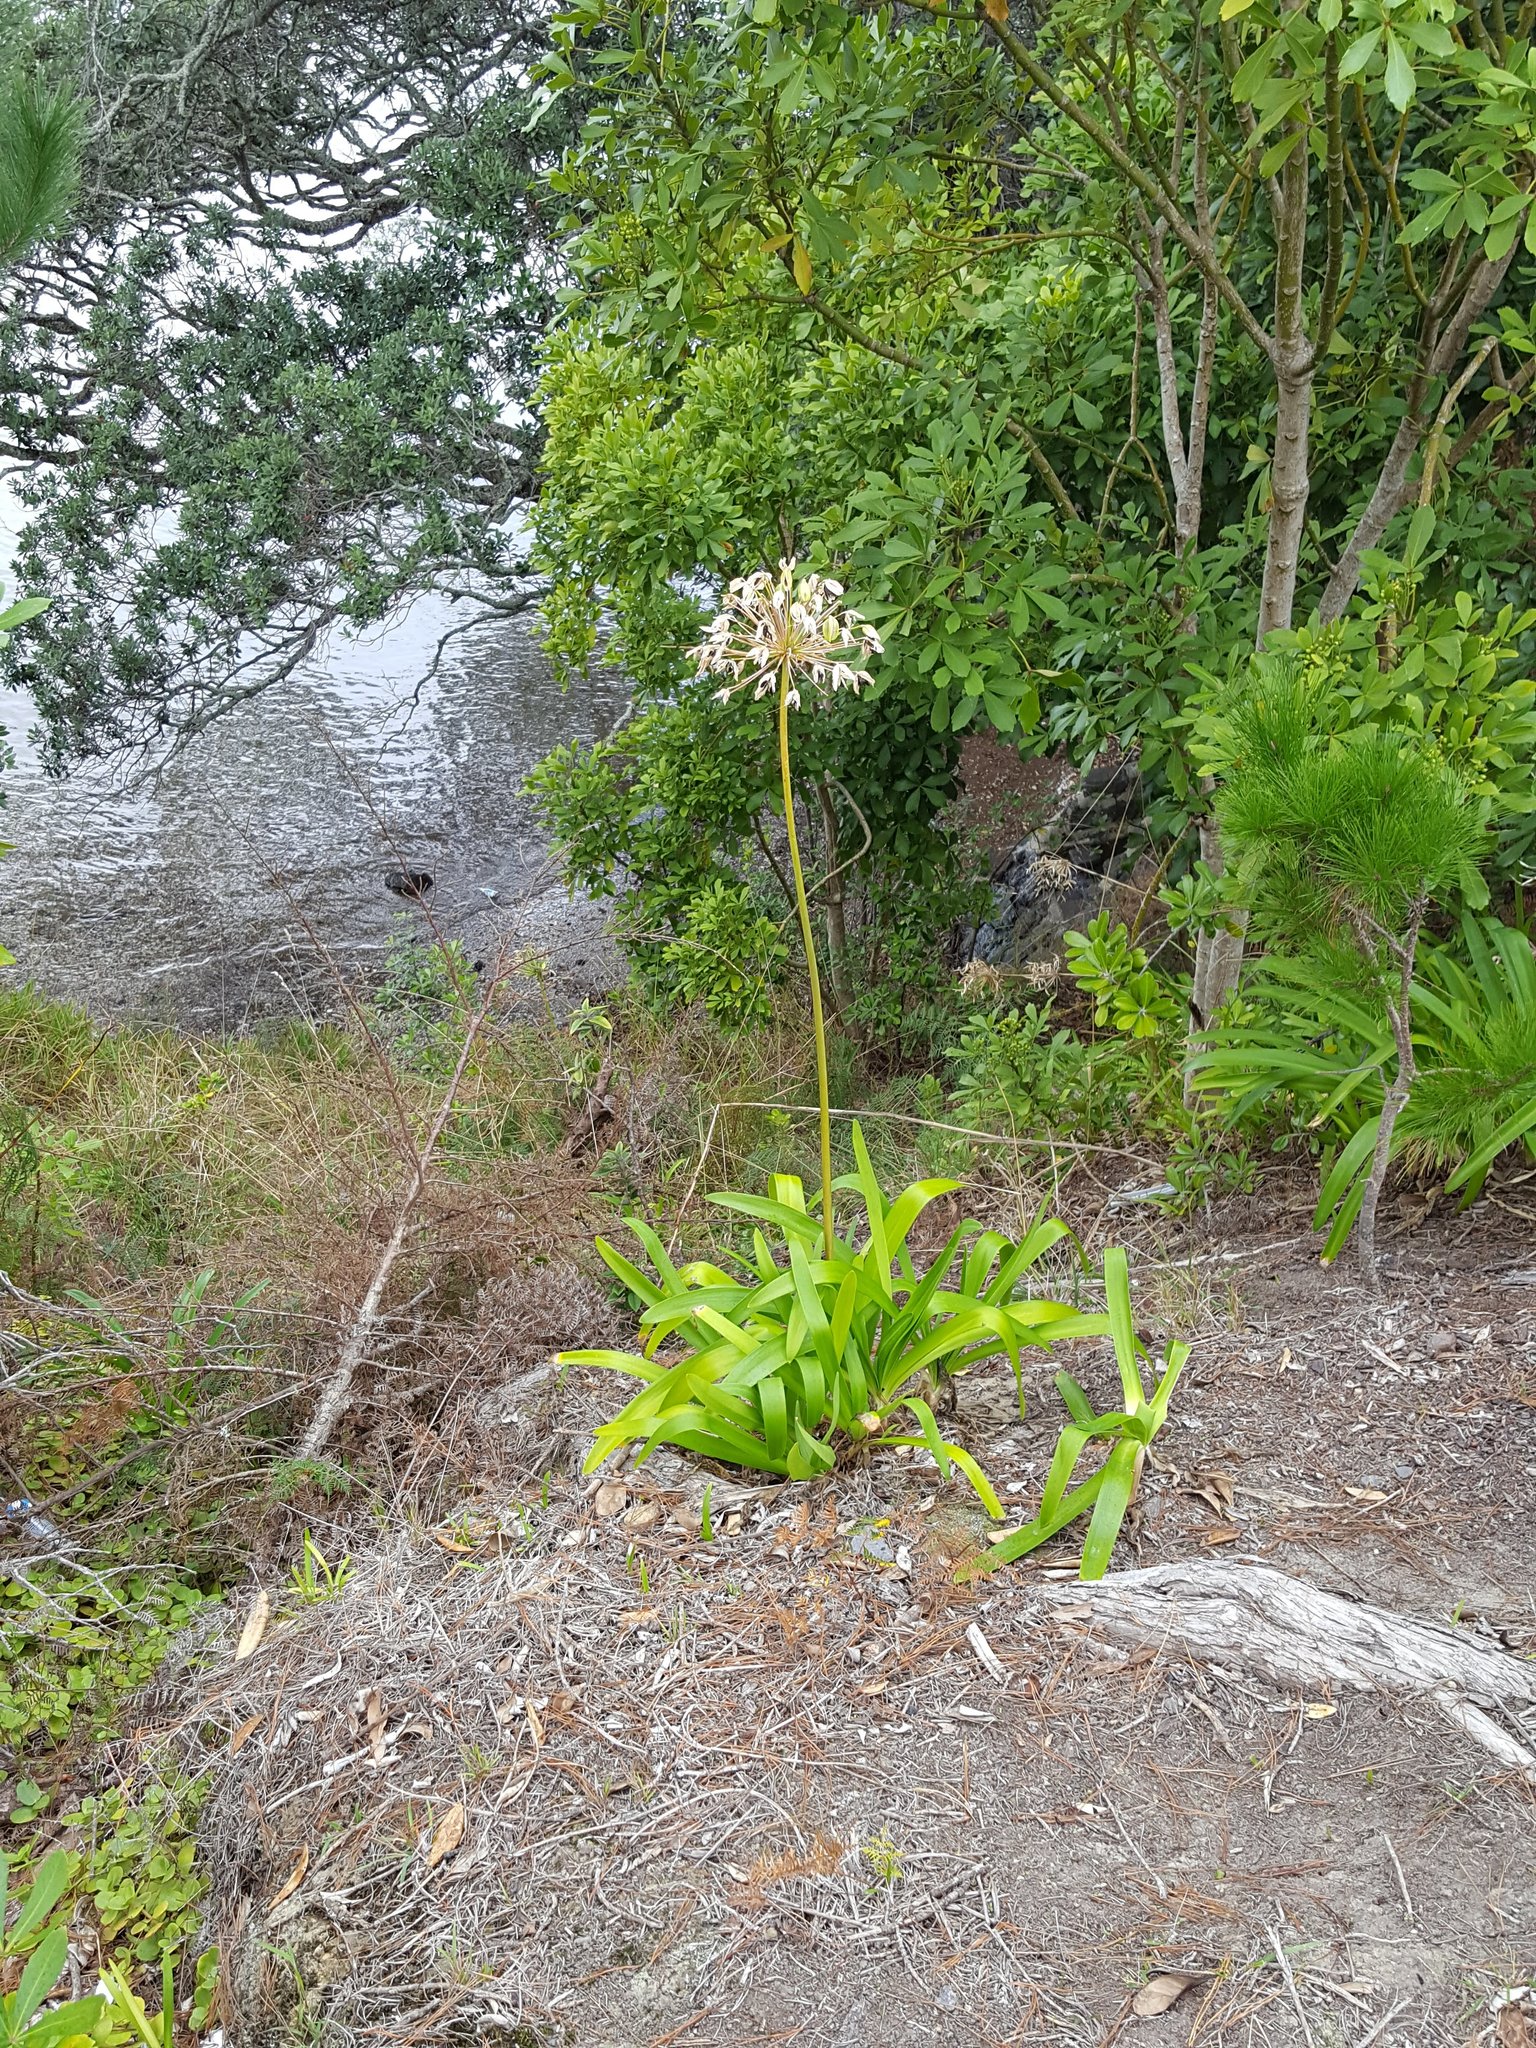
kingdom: Plantae
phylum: Tracheophyta
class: Liliopsida
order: Asparagales
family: Amaryllidaceae
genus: Agapanthus
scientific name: Agapanthus praecox
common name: African-lily
